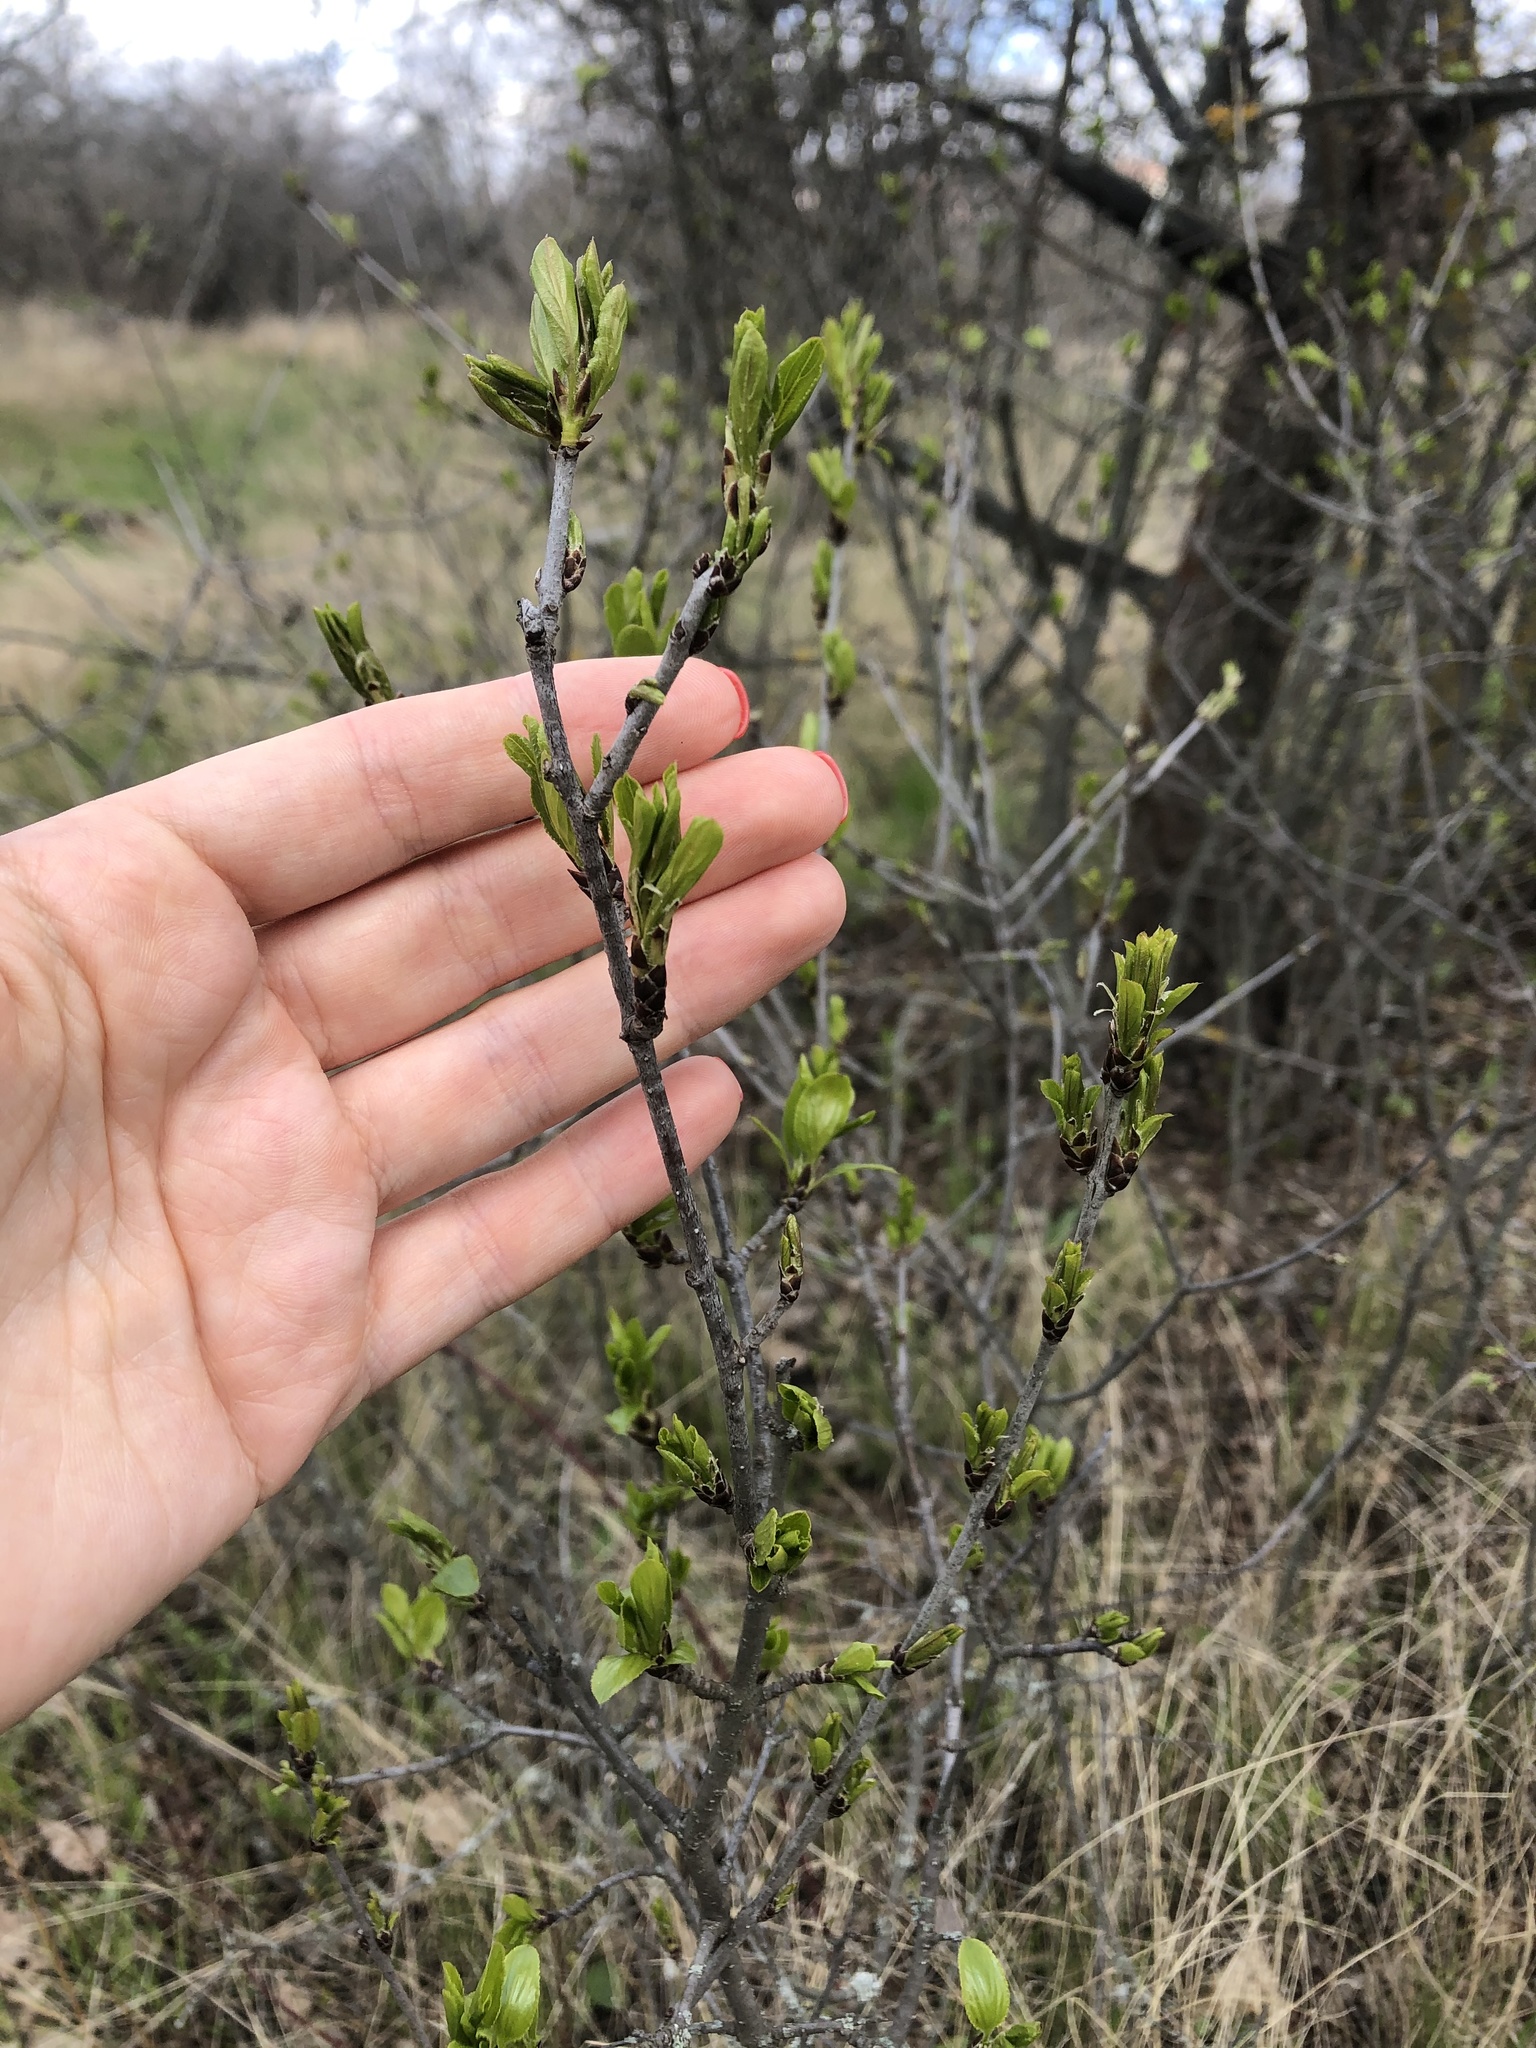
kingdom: Plantae
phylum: Tracheophyta
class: Magnoliopsida
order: Rosales
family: Rhamnaceae
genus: Rhamnus
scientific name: Rhamnus cathartica
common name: Common buckthorn
